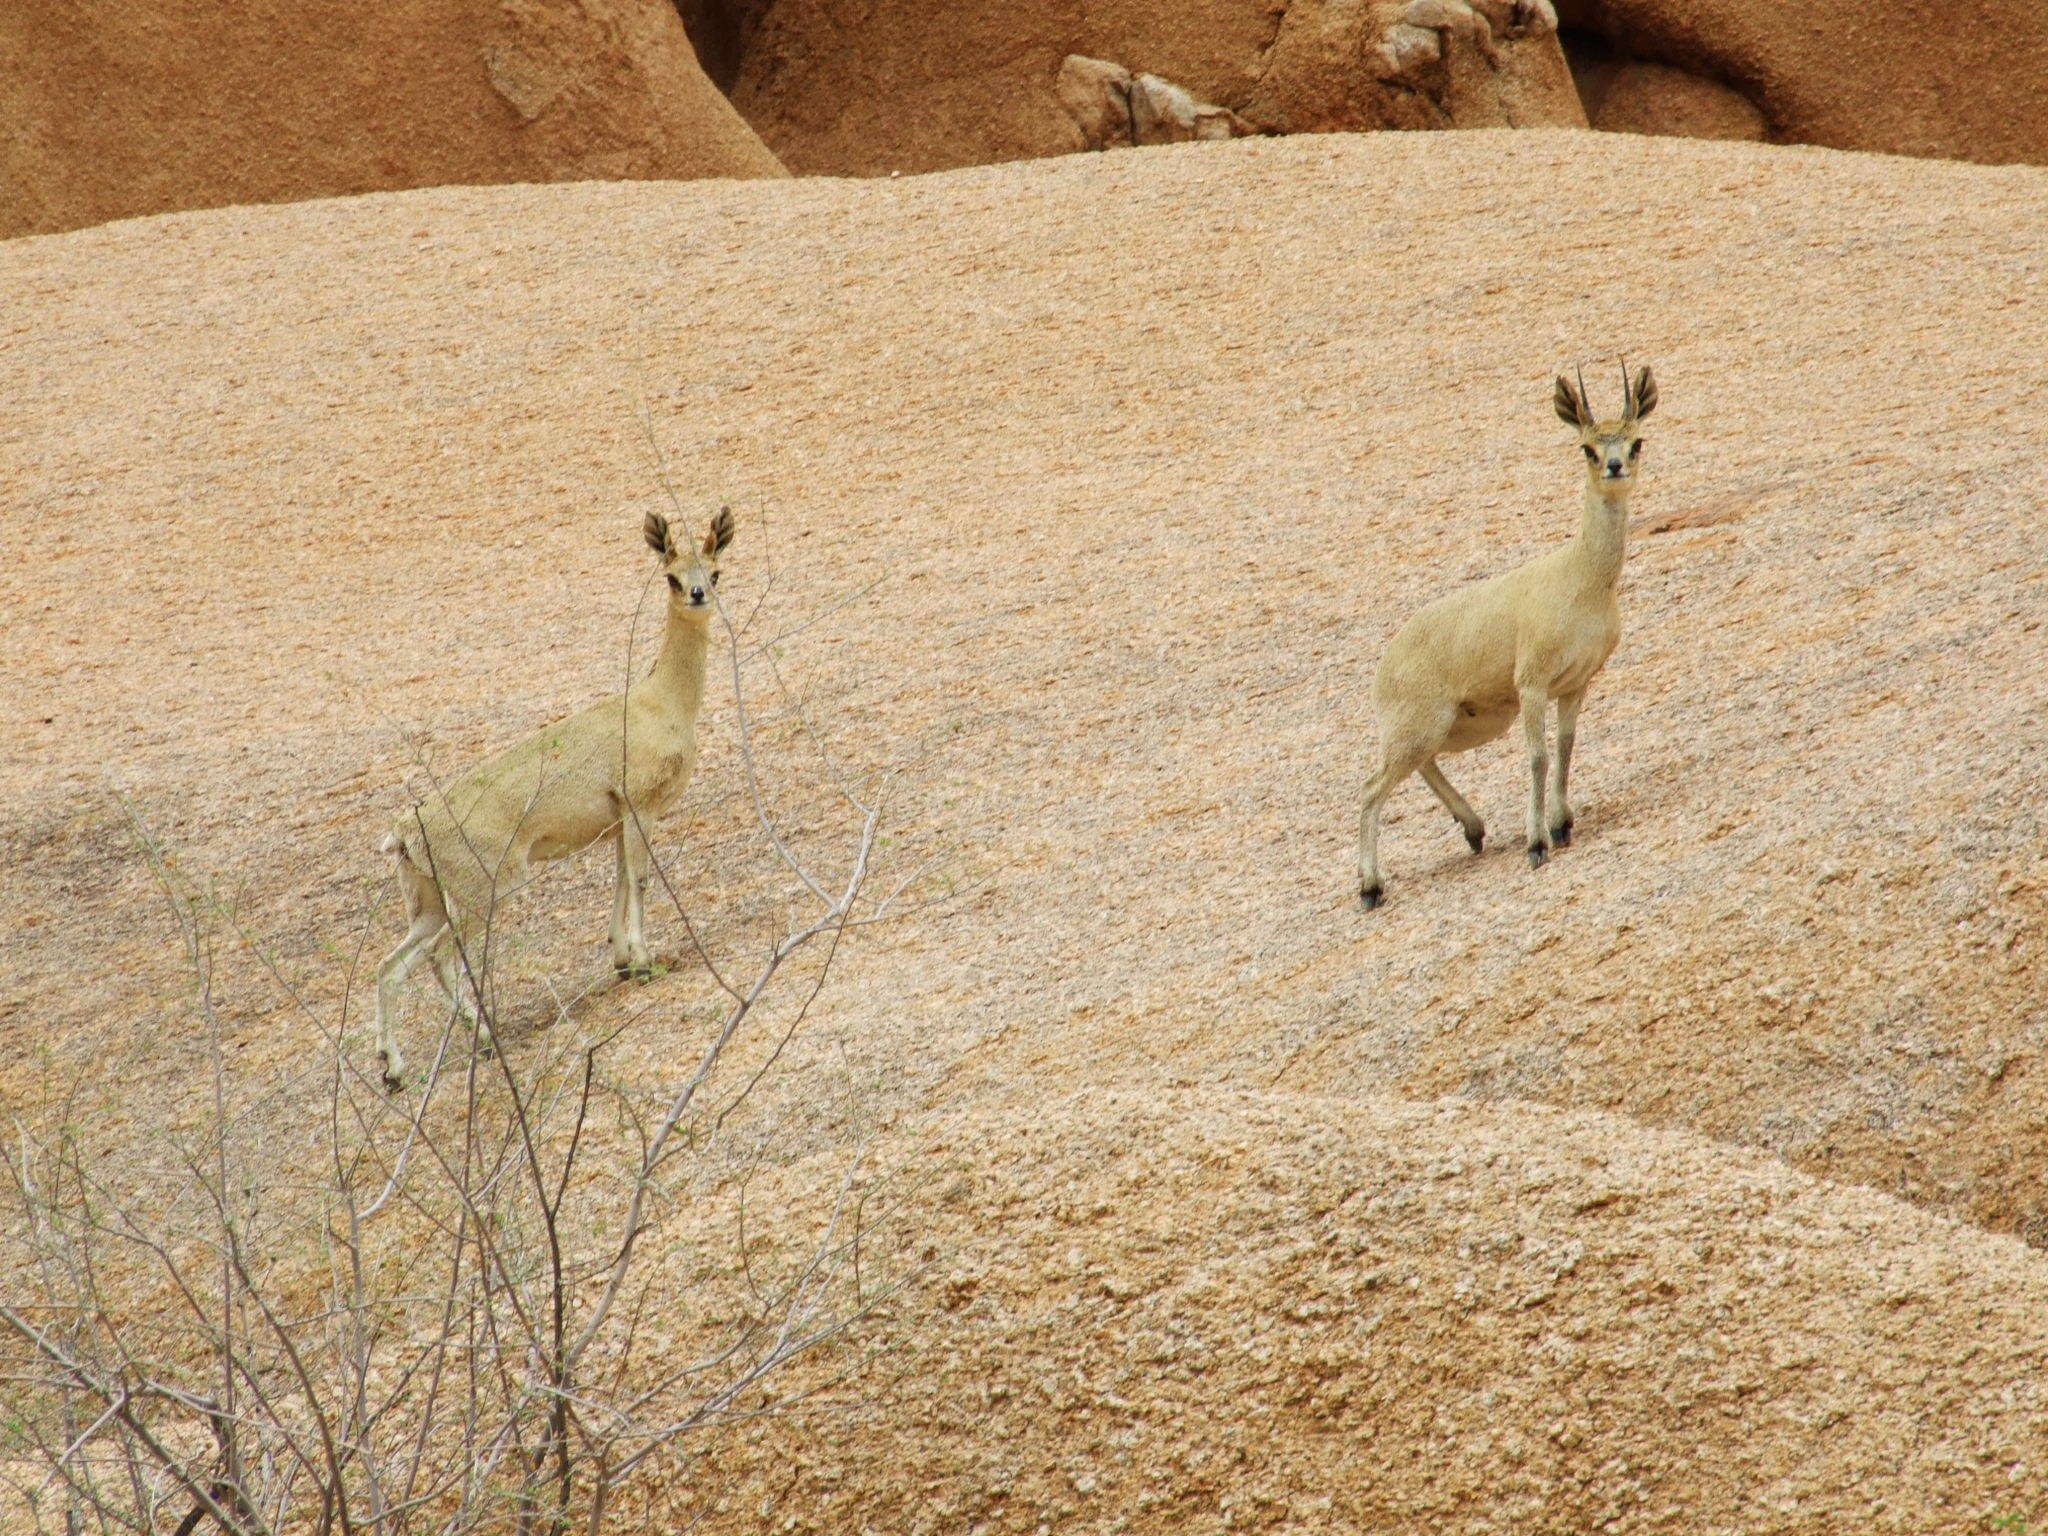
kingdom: Animalia
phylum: Chordata
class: Mammalia
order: Artiodactyla
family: Bovidae
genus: Oreotragus
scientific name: Oreotragus oreotragus
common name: Klipspringer
